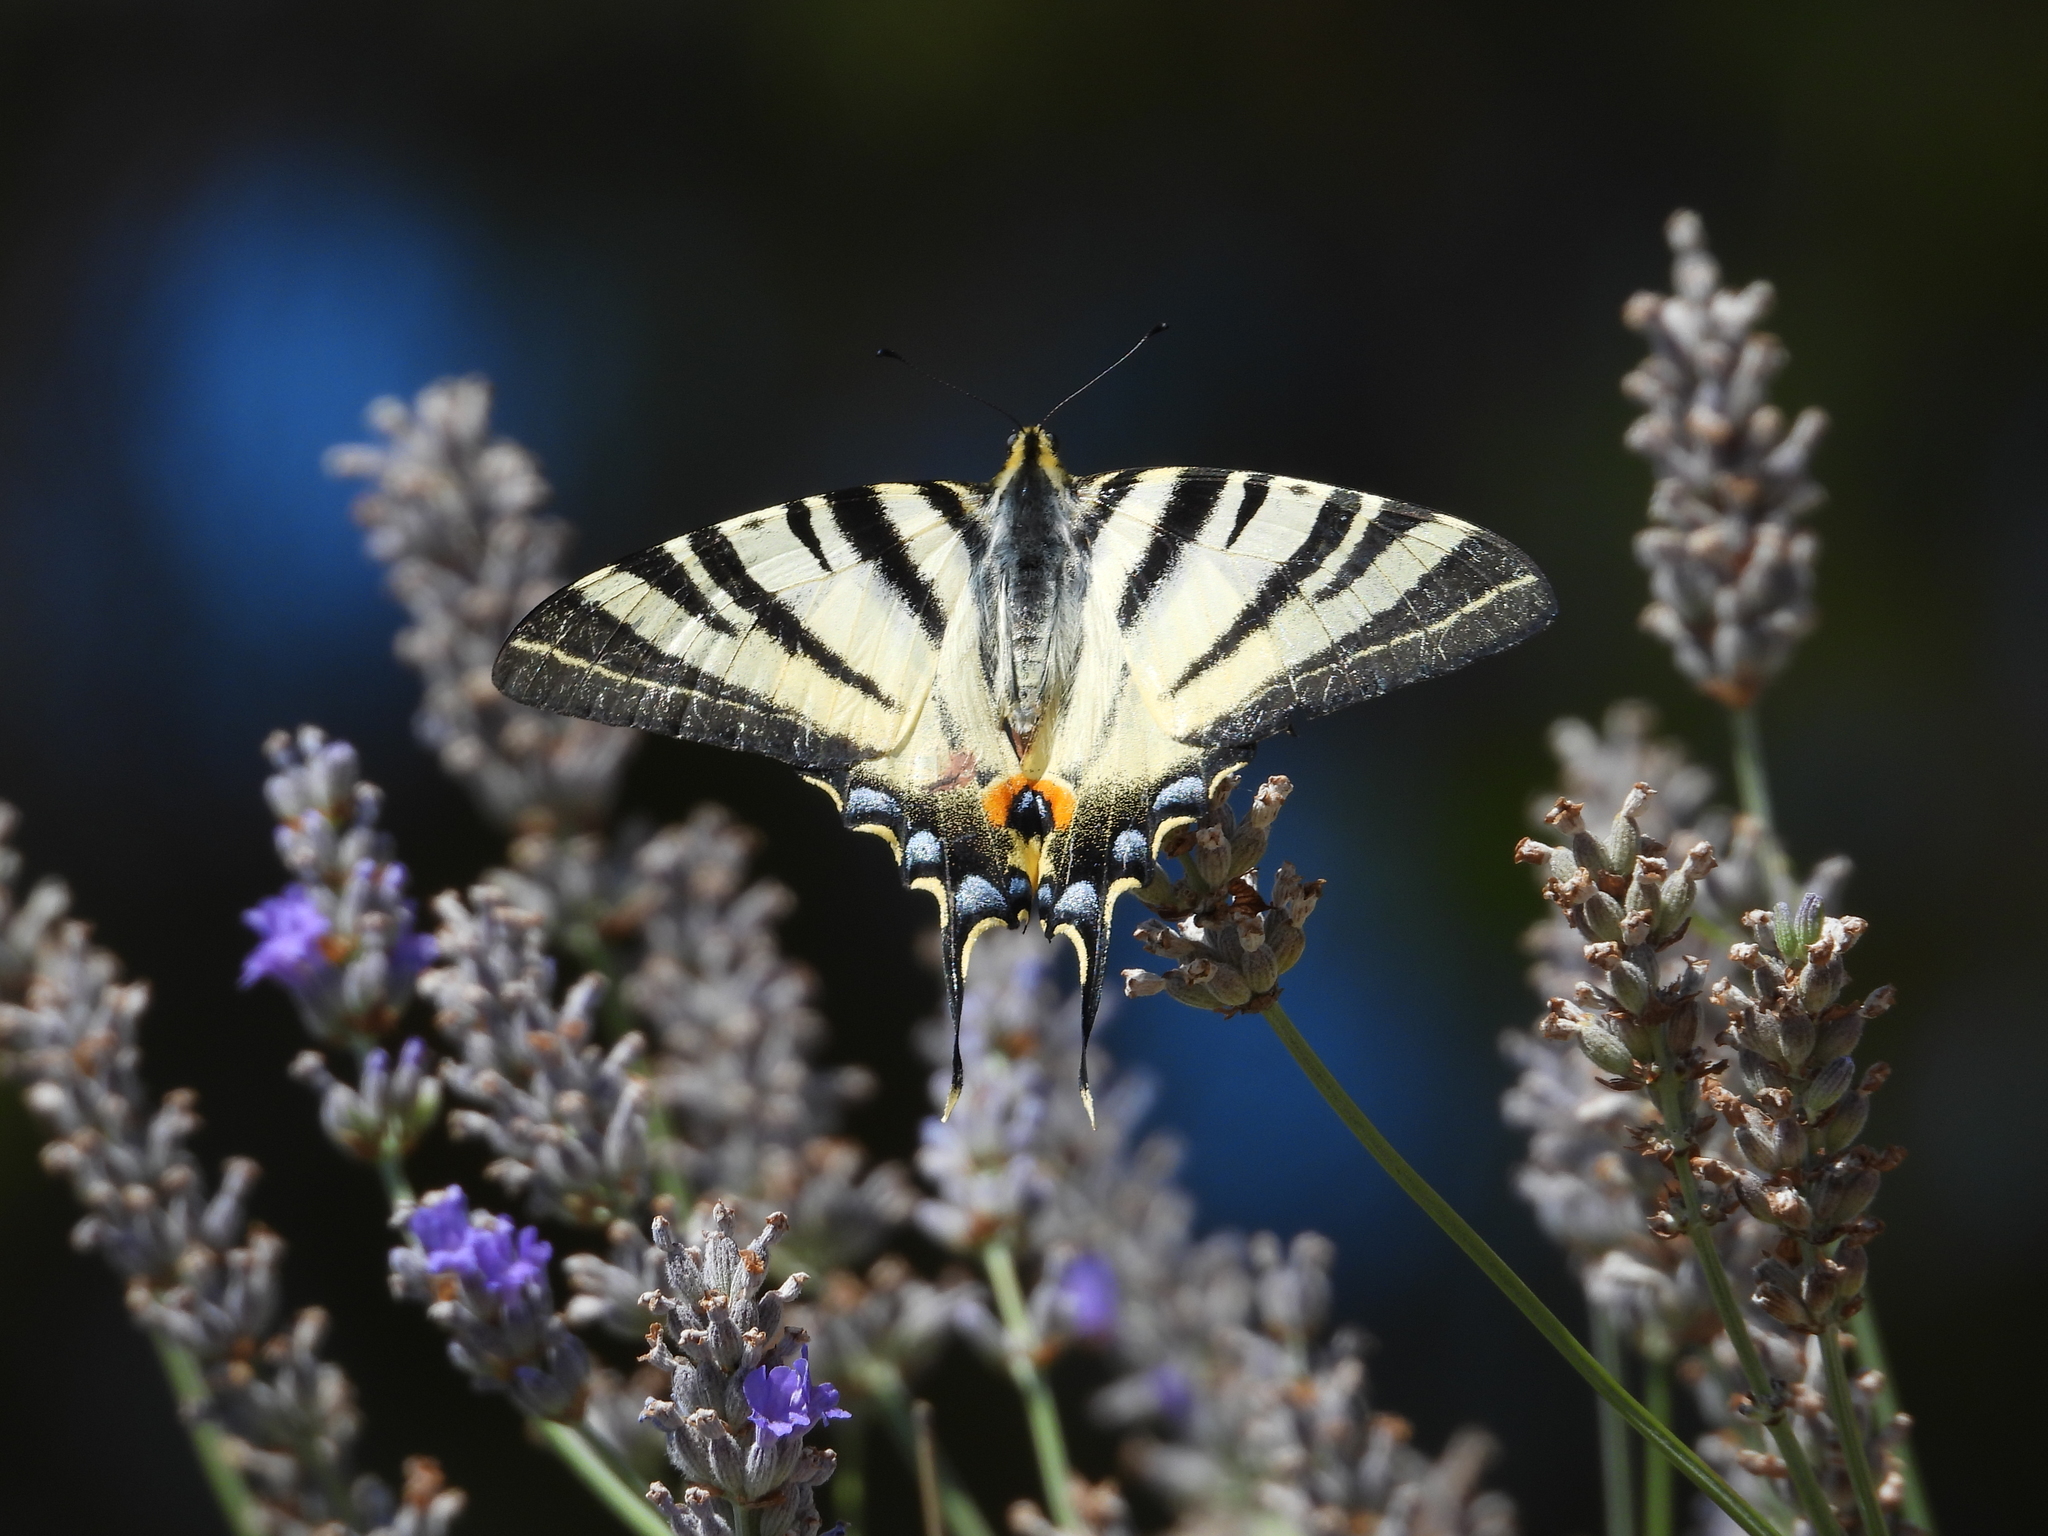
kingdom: Animalia
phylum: Arthropoda
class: Insecta
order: Lepidoptera
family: Papilionidae
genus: Iphiclides
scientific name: Iphiclides podalirius
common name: Scarce swallowtail
